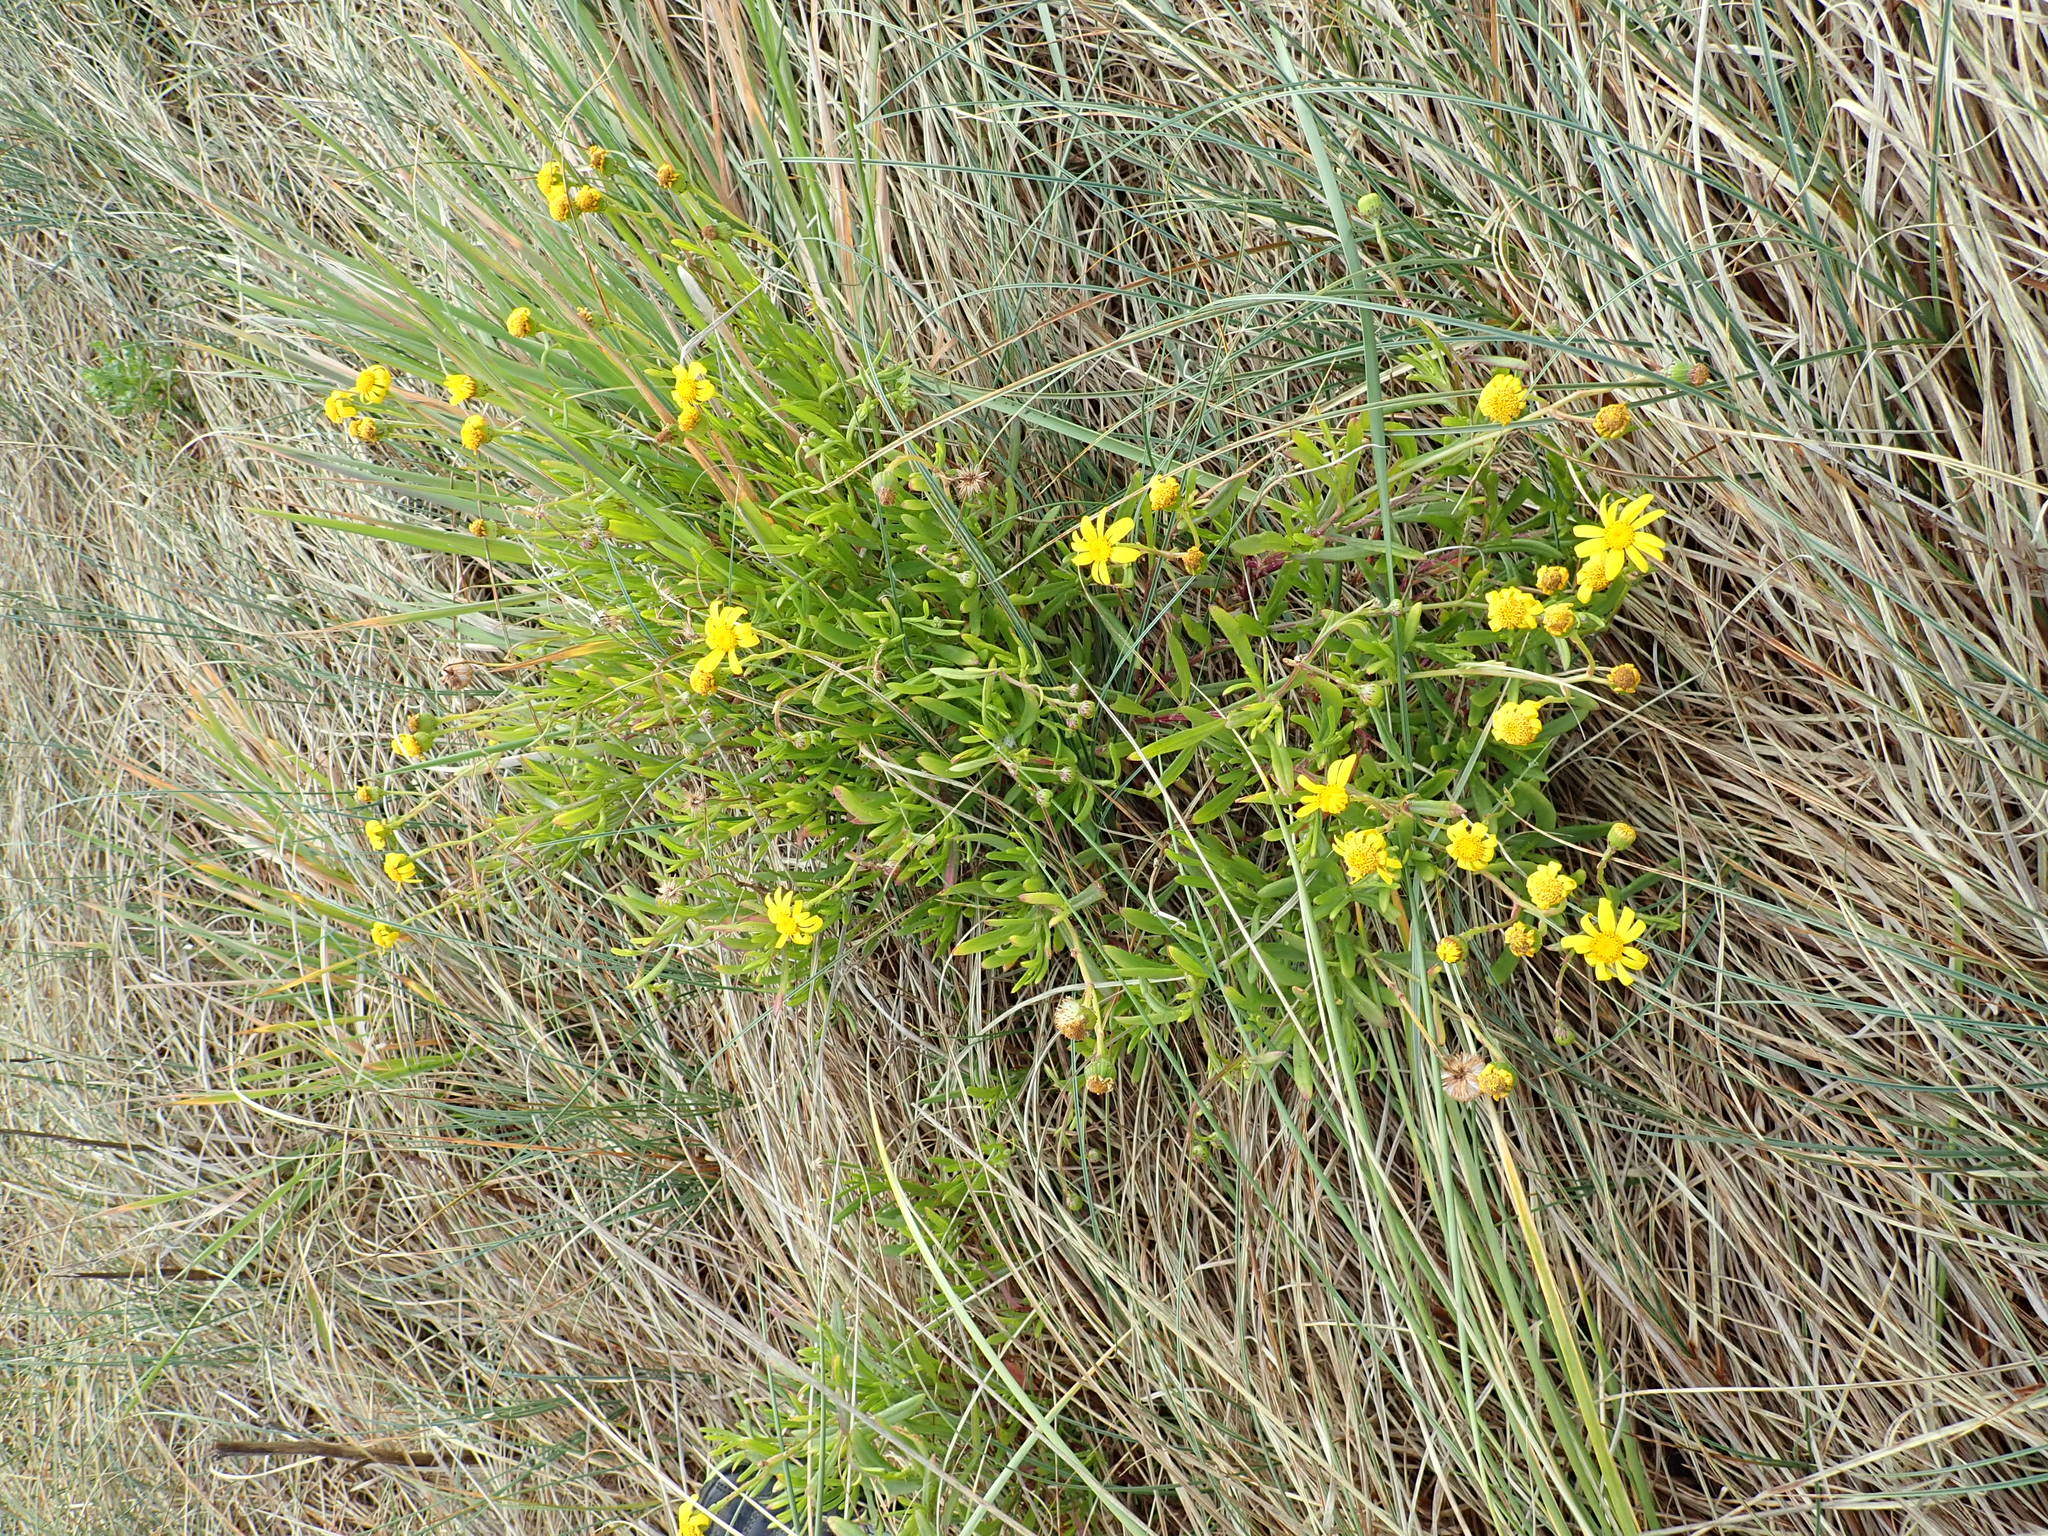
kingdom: Plantae
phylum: Tracheophyta
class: Magnoliopsida
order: Asterales
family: Asteraceae
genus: Senecio
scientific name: Senecio skirrhodon
